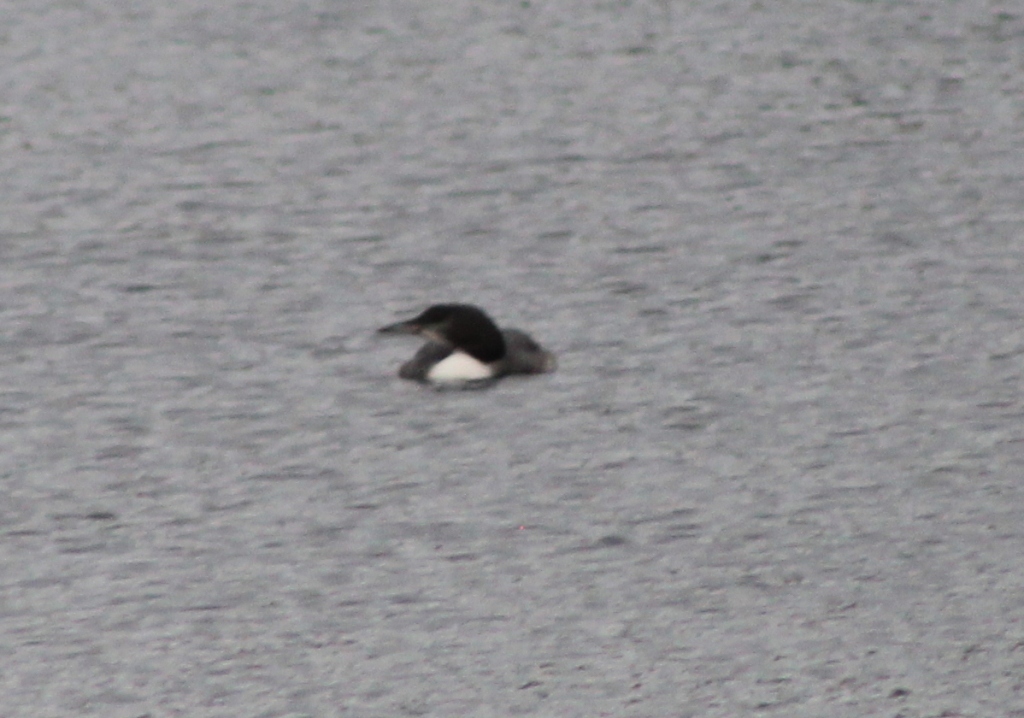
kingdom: Animalia
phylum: Chordata
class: Aves
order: Gaviiformes
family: Gaviidae
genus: Gavia
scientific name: Gavia immer
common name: Common loon
